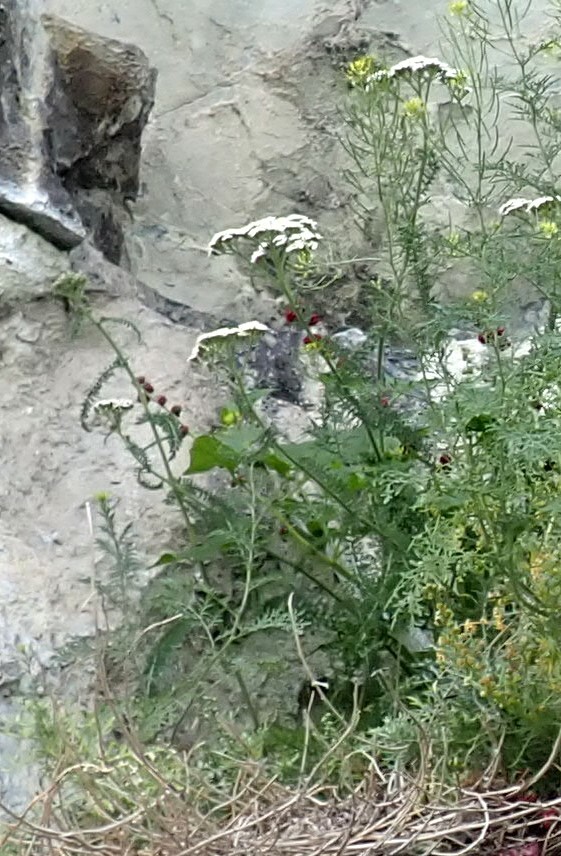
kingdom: Plantae
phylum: Tracheophyta
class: Magnoliopsida
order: Asterales
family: Asteraceae
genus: Achillea
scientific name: Achillea millefolium
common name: Yarrow
